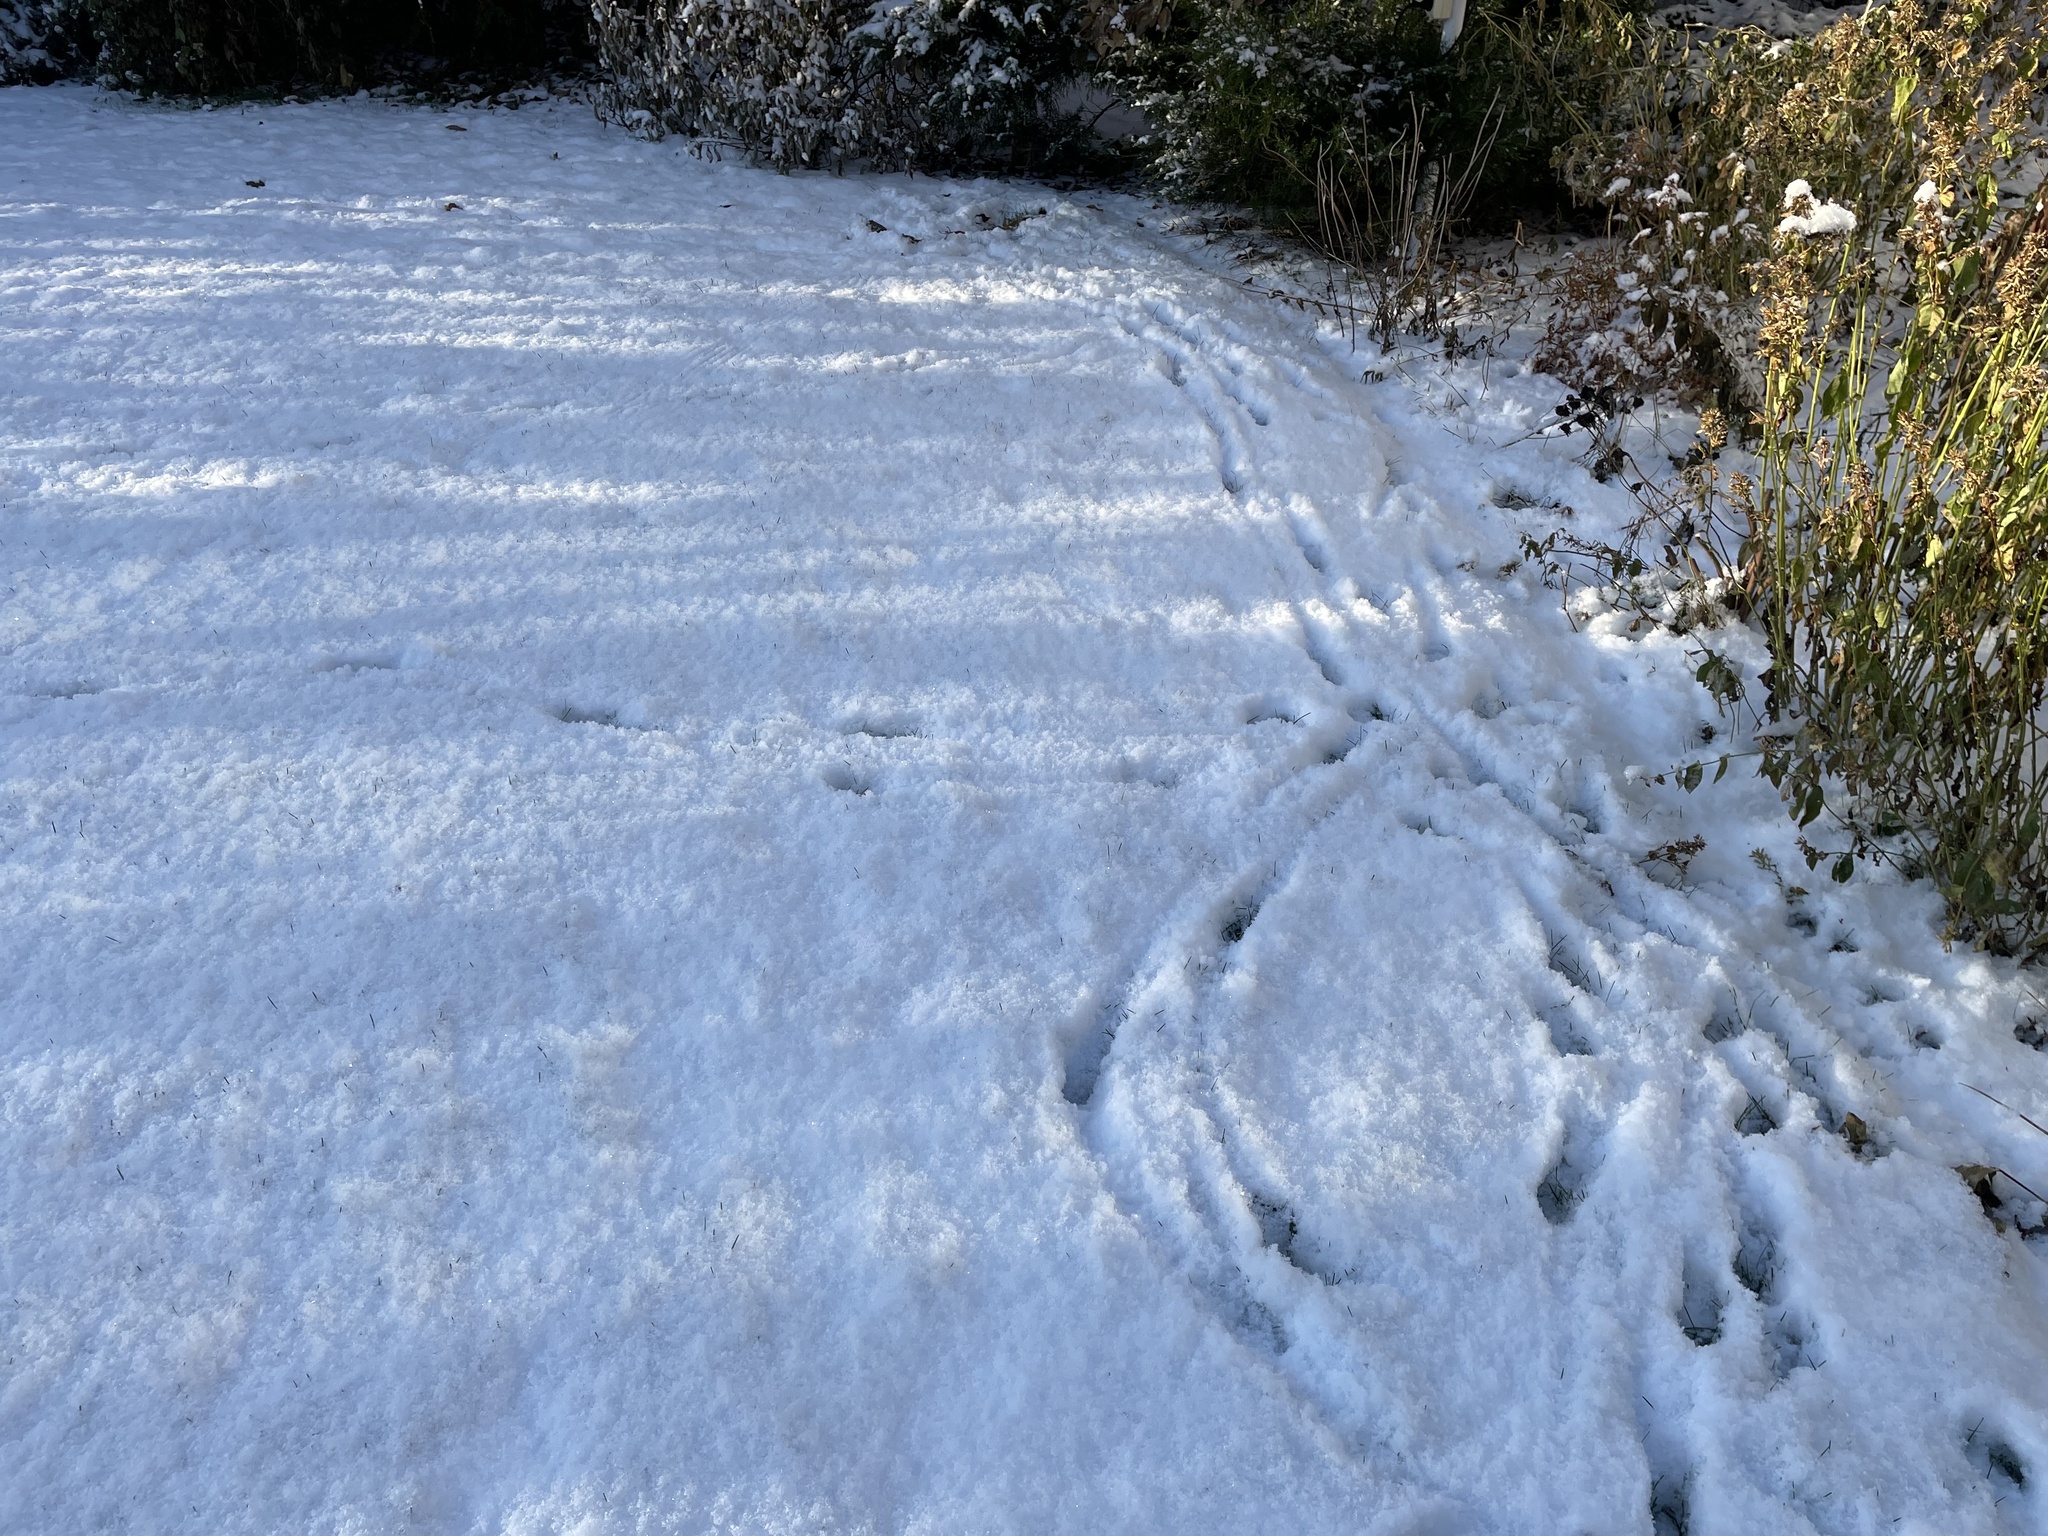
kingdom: Animalia
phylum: Chordata
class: Mammalia
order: Artiodactyla
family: Cervidae
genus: Capreolus
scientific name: Capreolus capreolus
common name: Western roe deer
